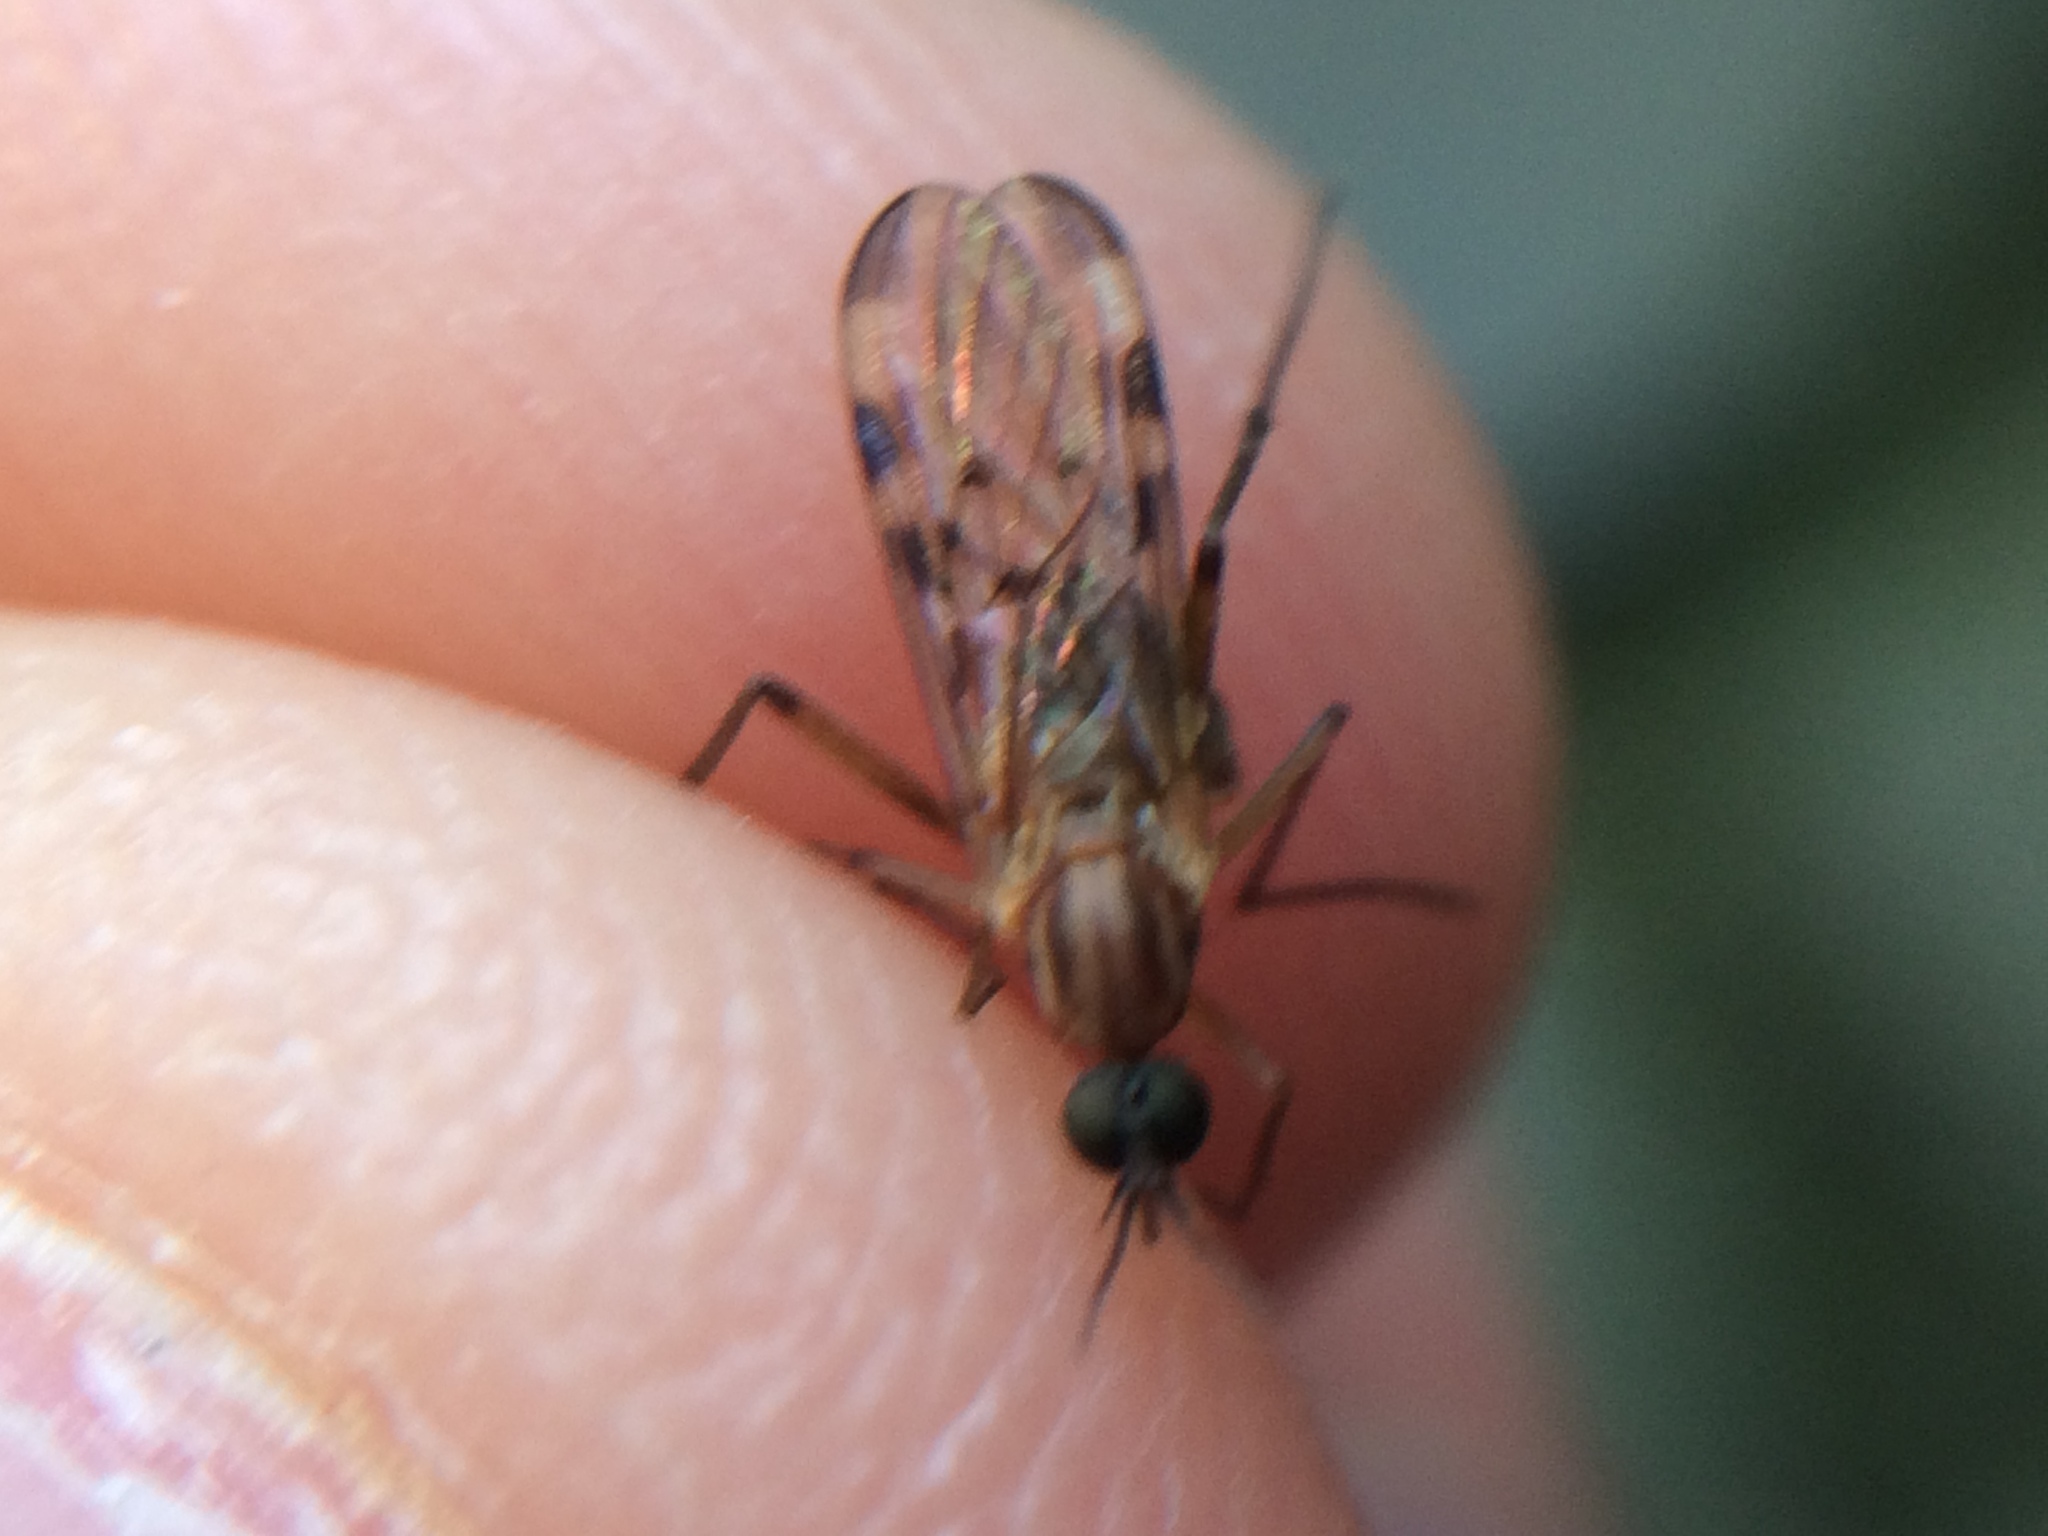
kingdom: Animalia
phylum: Arthropoda
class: Insecta
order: Diptera
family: Anisopodidae
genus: Sylvicola
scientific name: Sylvicola fenestralis
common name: Window gnat
